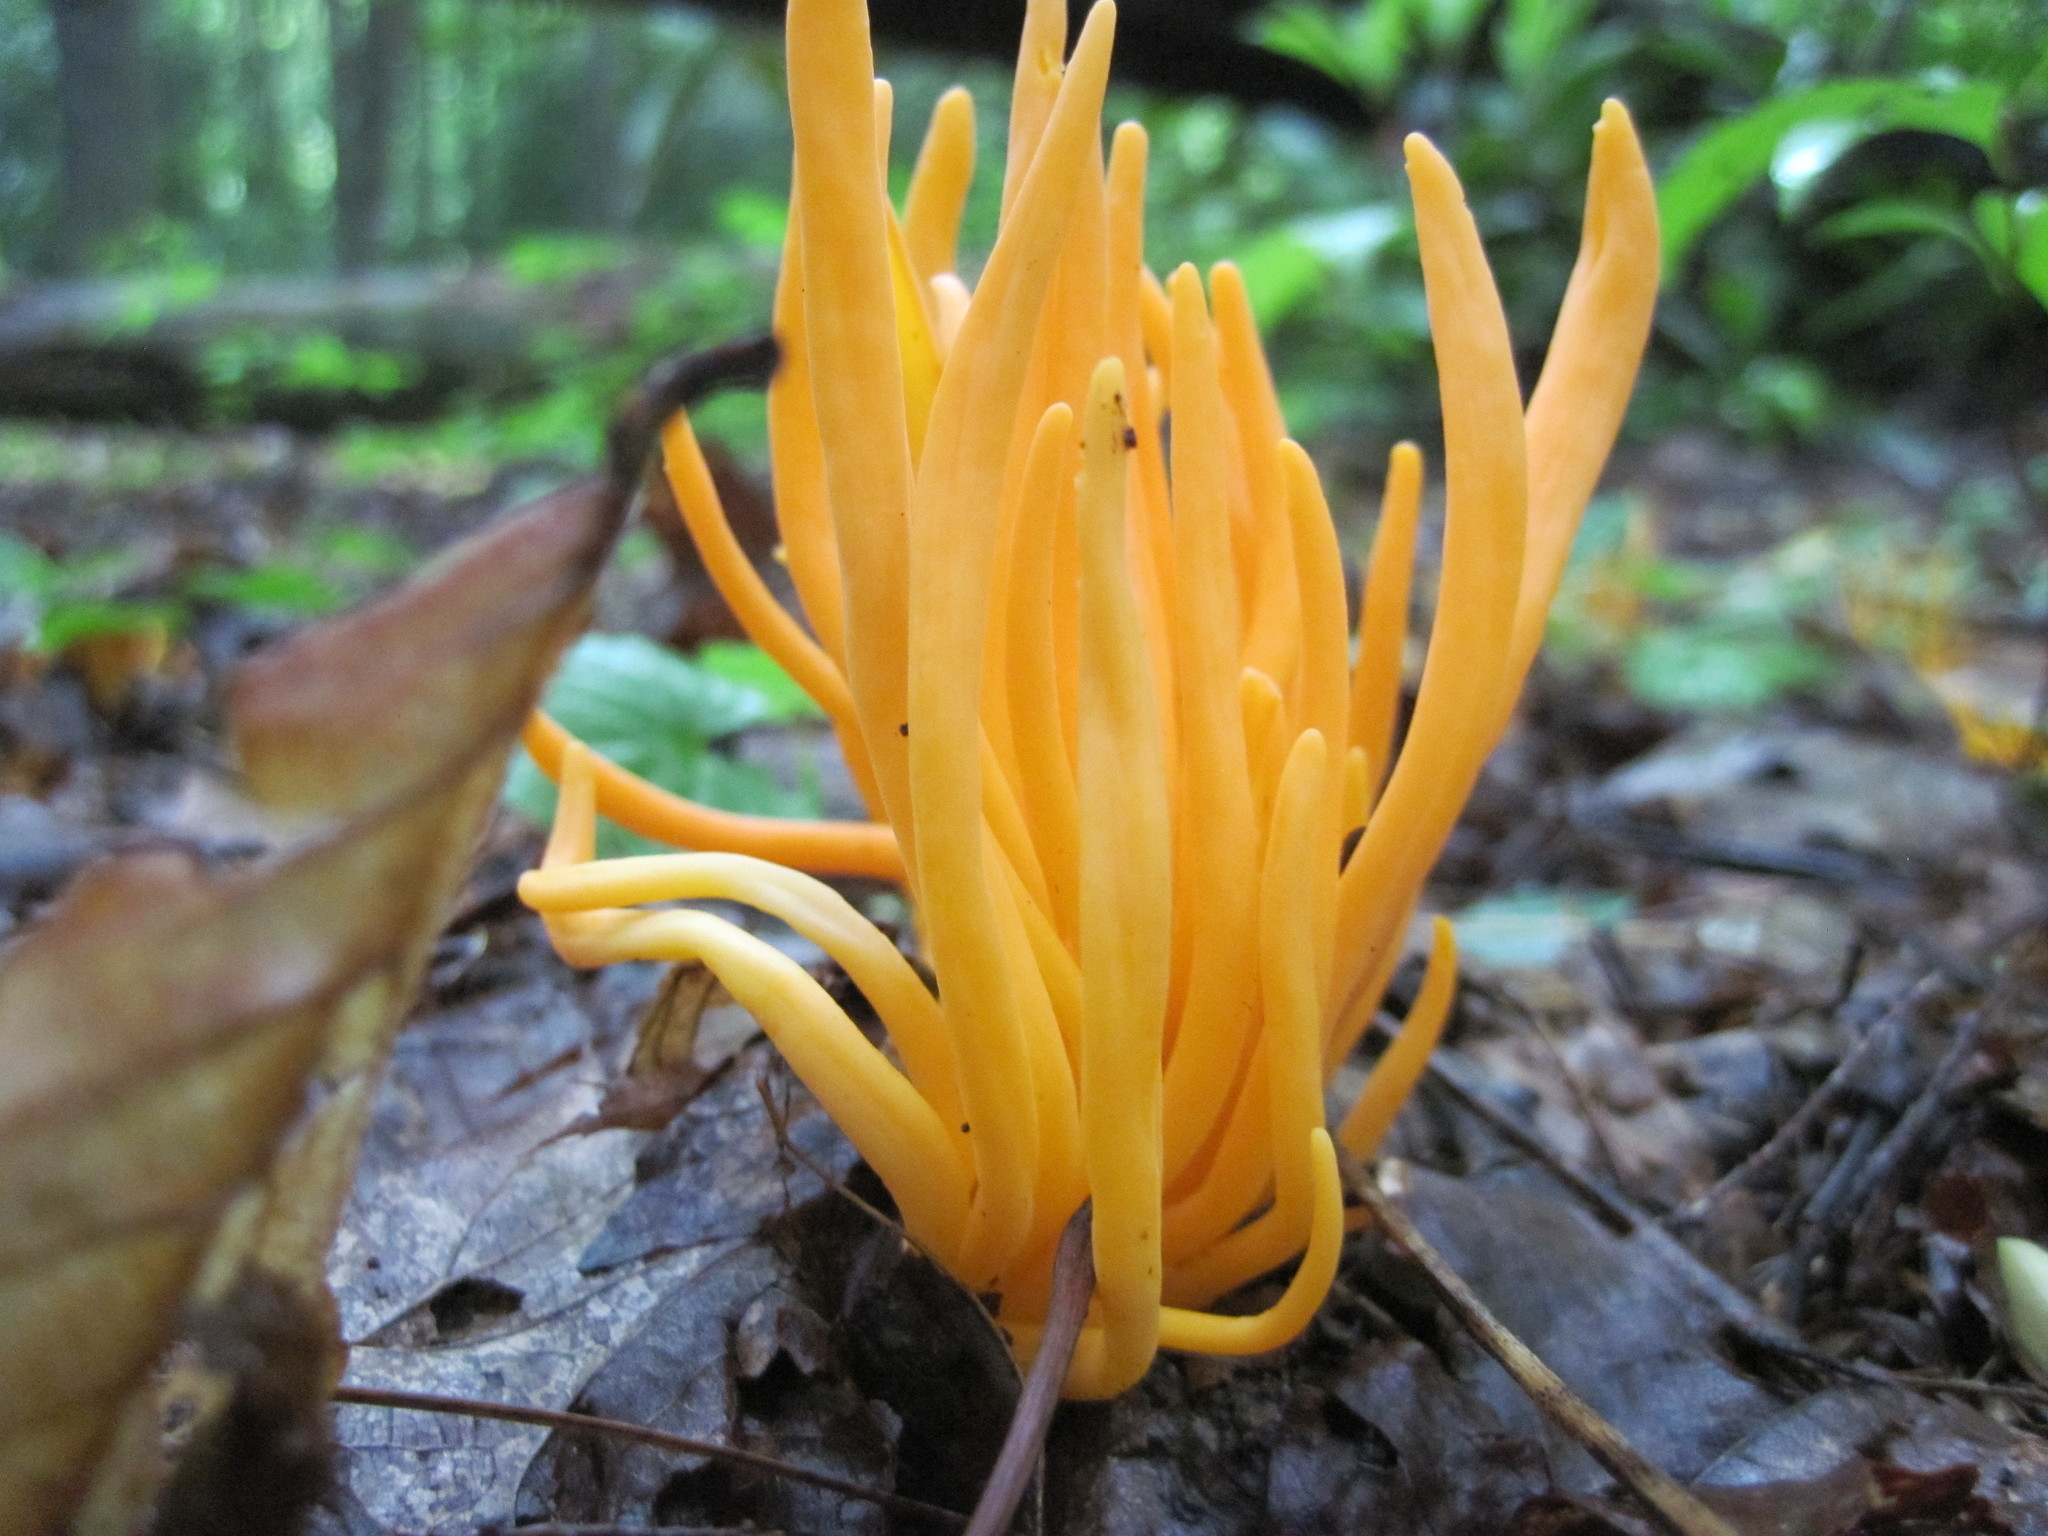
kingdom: Fungi
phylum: Basidiomycota
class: Agaricomycetes
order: Agaricales
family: Clavariaceae
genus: Clavulinopsis
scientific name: Clavulinopsis aurantiocinnabarina
